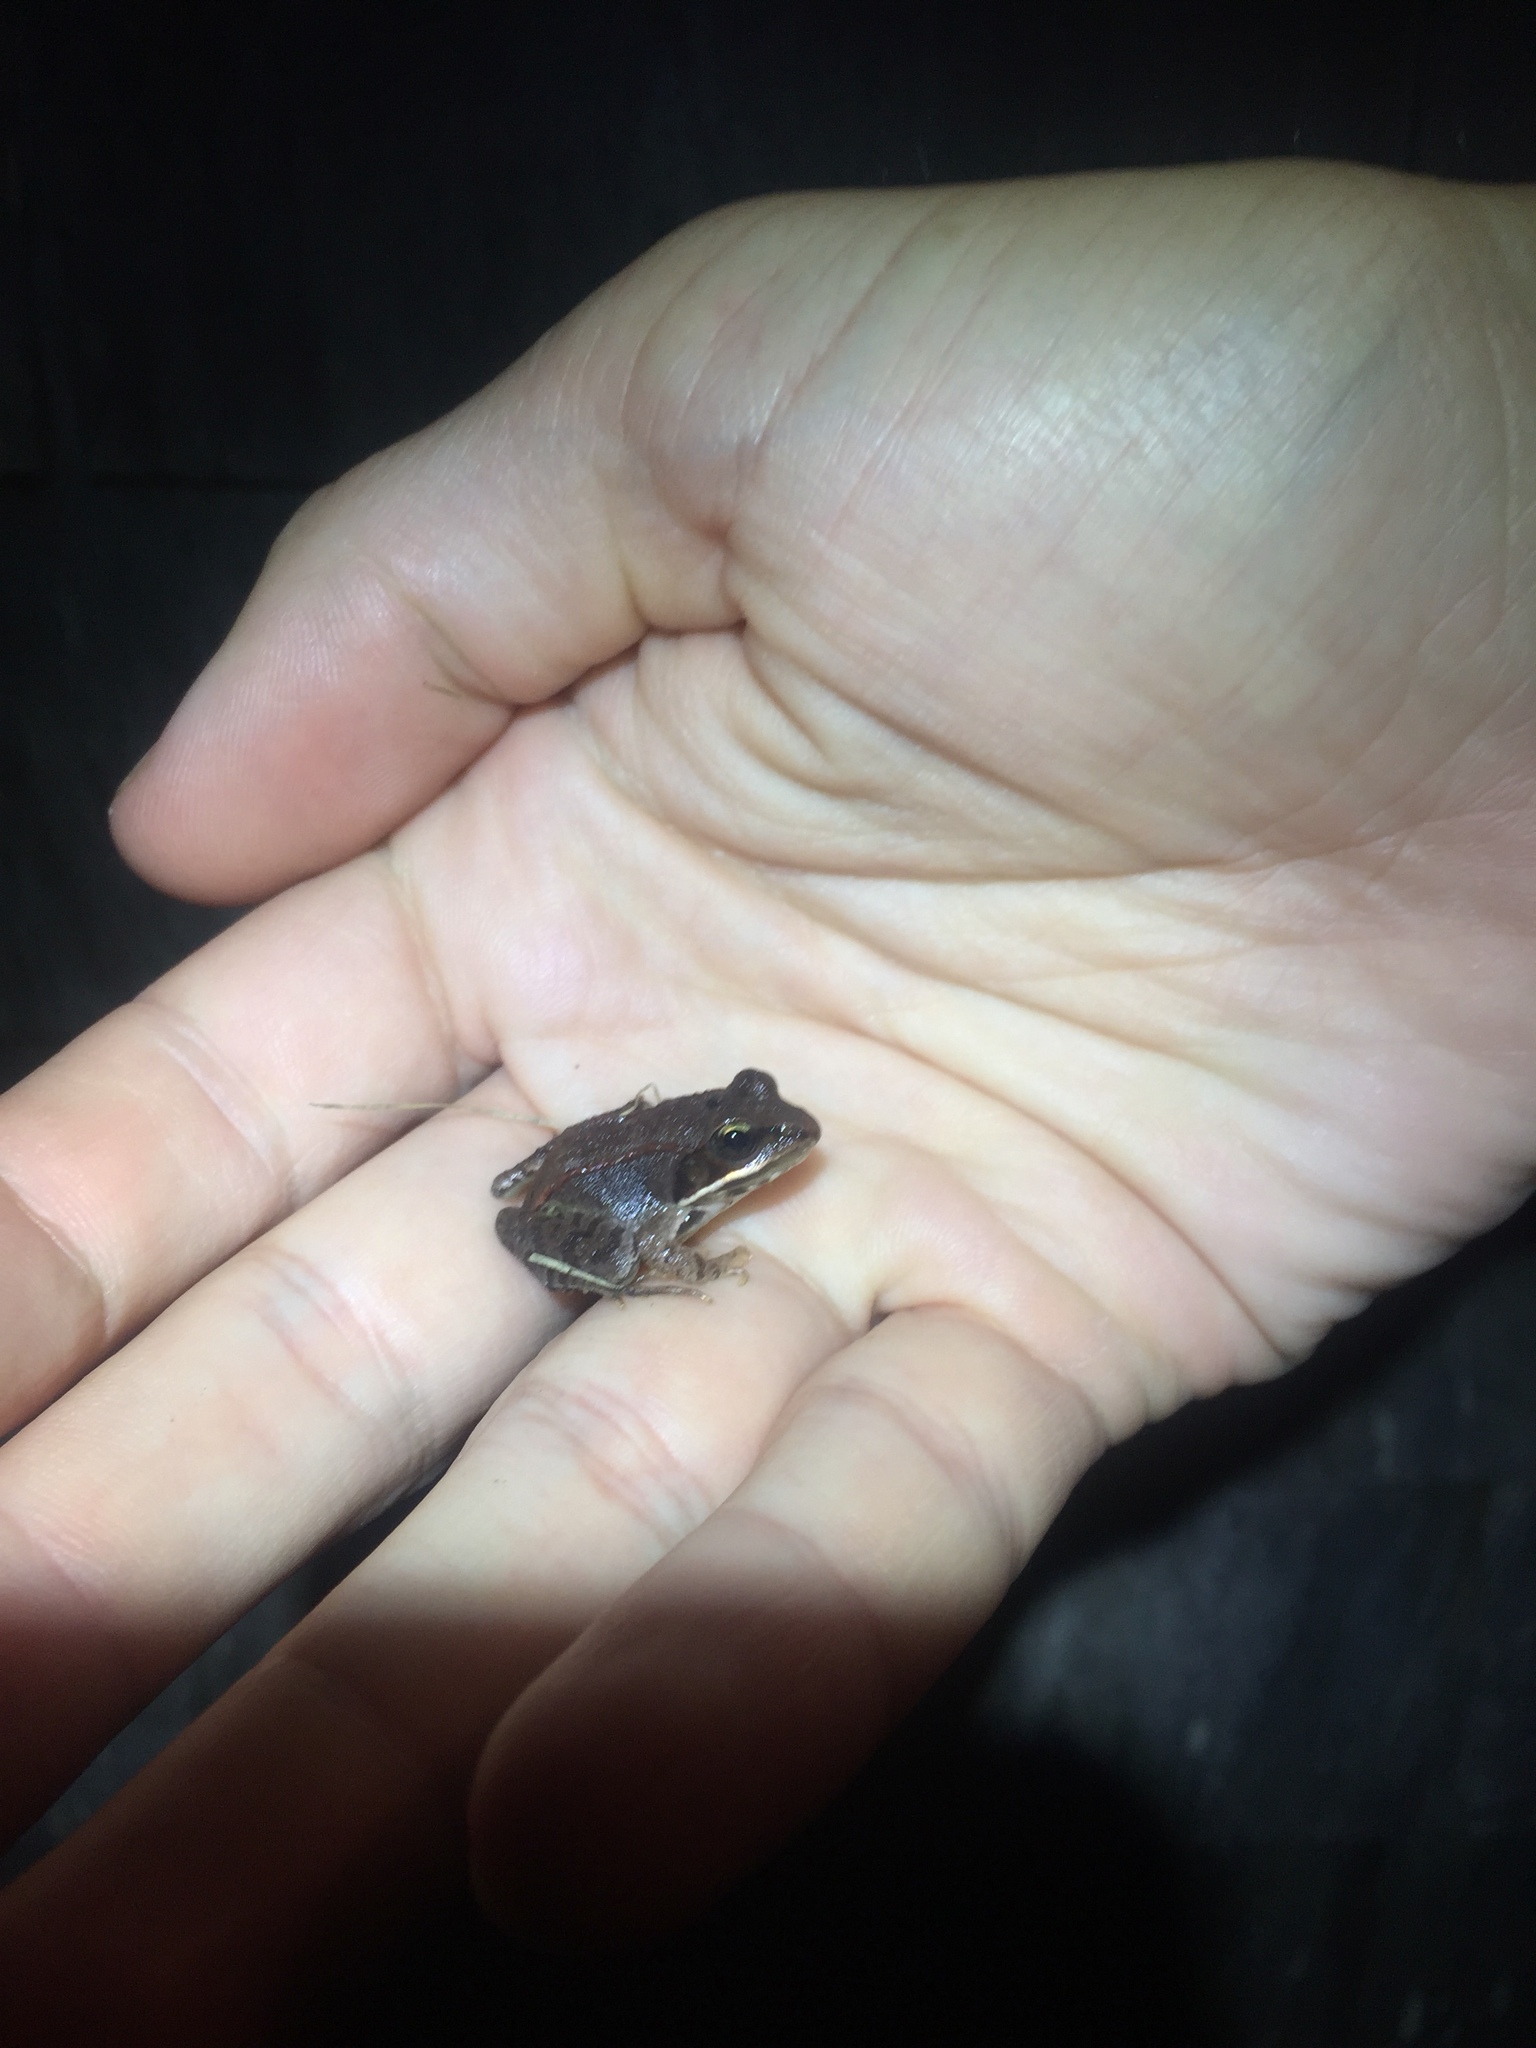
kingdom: Animalia
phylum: Chordata
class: Amphibia
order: Anura
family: Ranidae
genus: Lithobates
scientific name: Lithobates sylvaticus
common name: Wood frog
